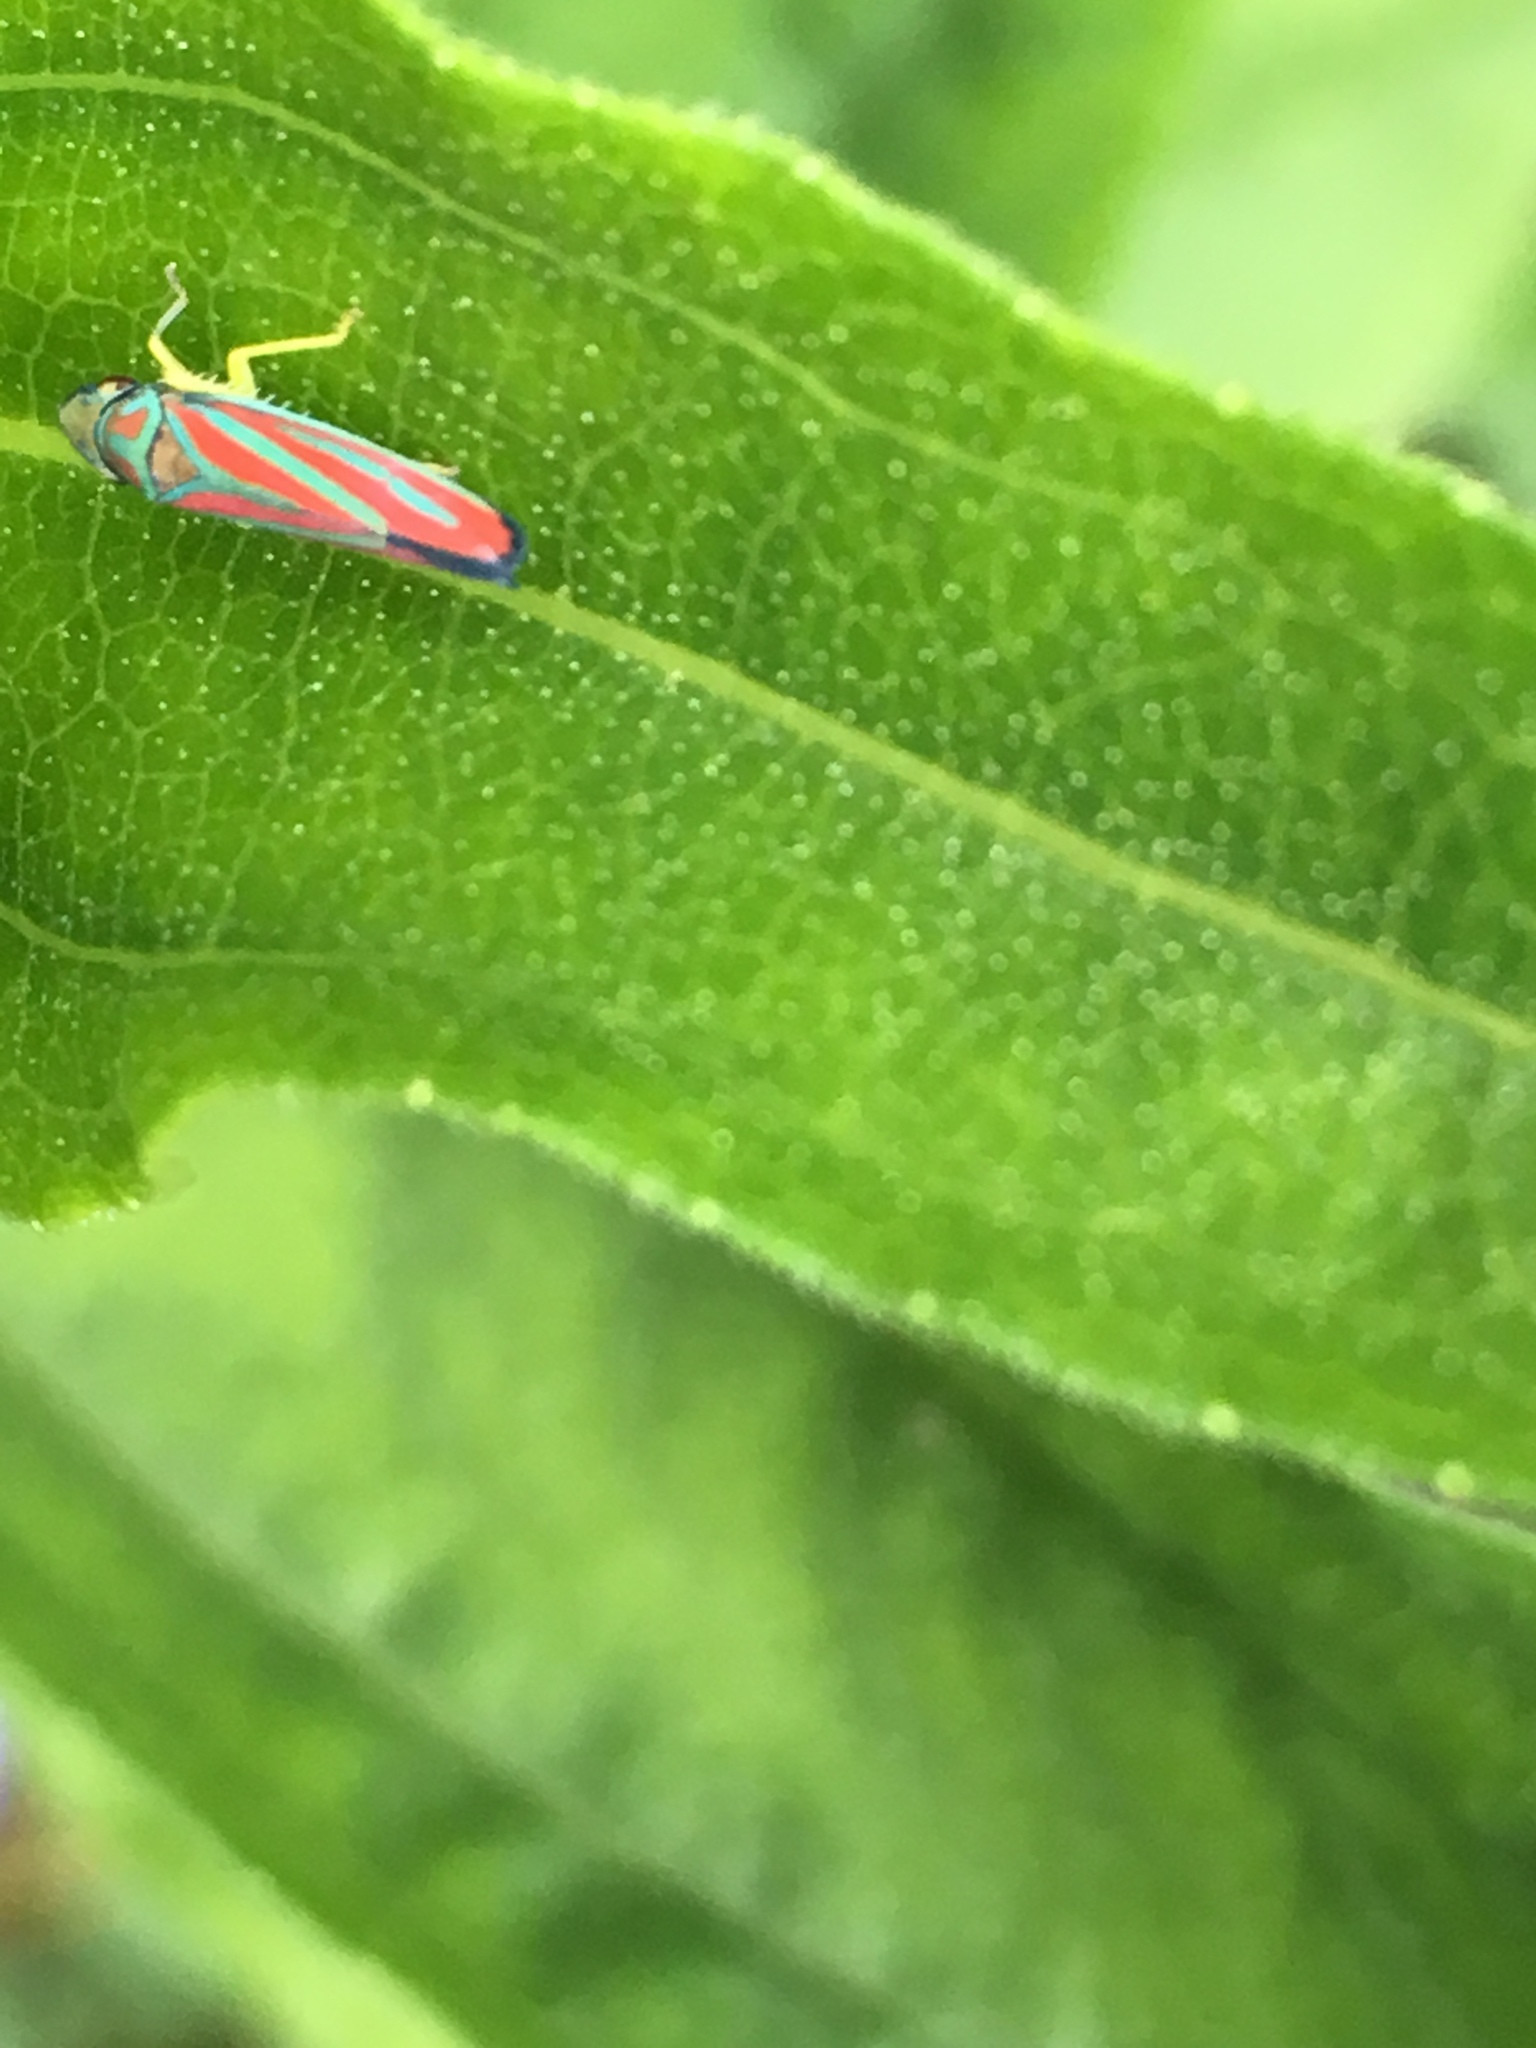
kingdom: Animalia
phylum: Arthropoda
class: Insecta
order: Hemiptera
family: Cicadellidae
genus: Graphocephala
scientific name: Graphocephala coccinea
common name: Candy-striped leafhopper
